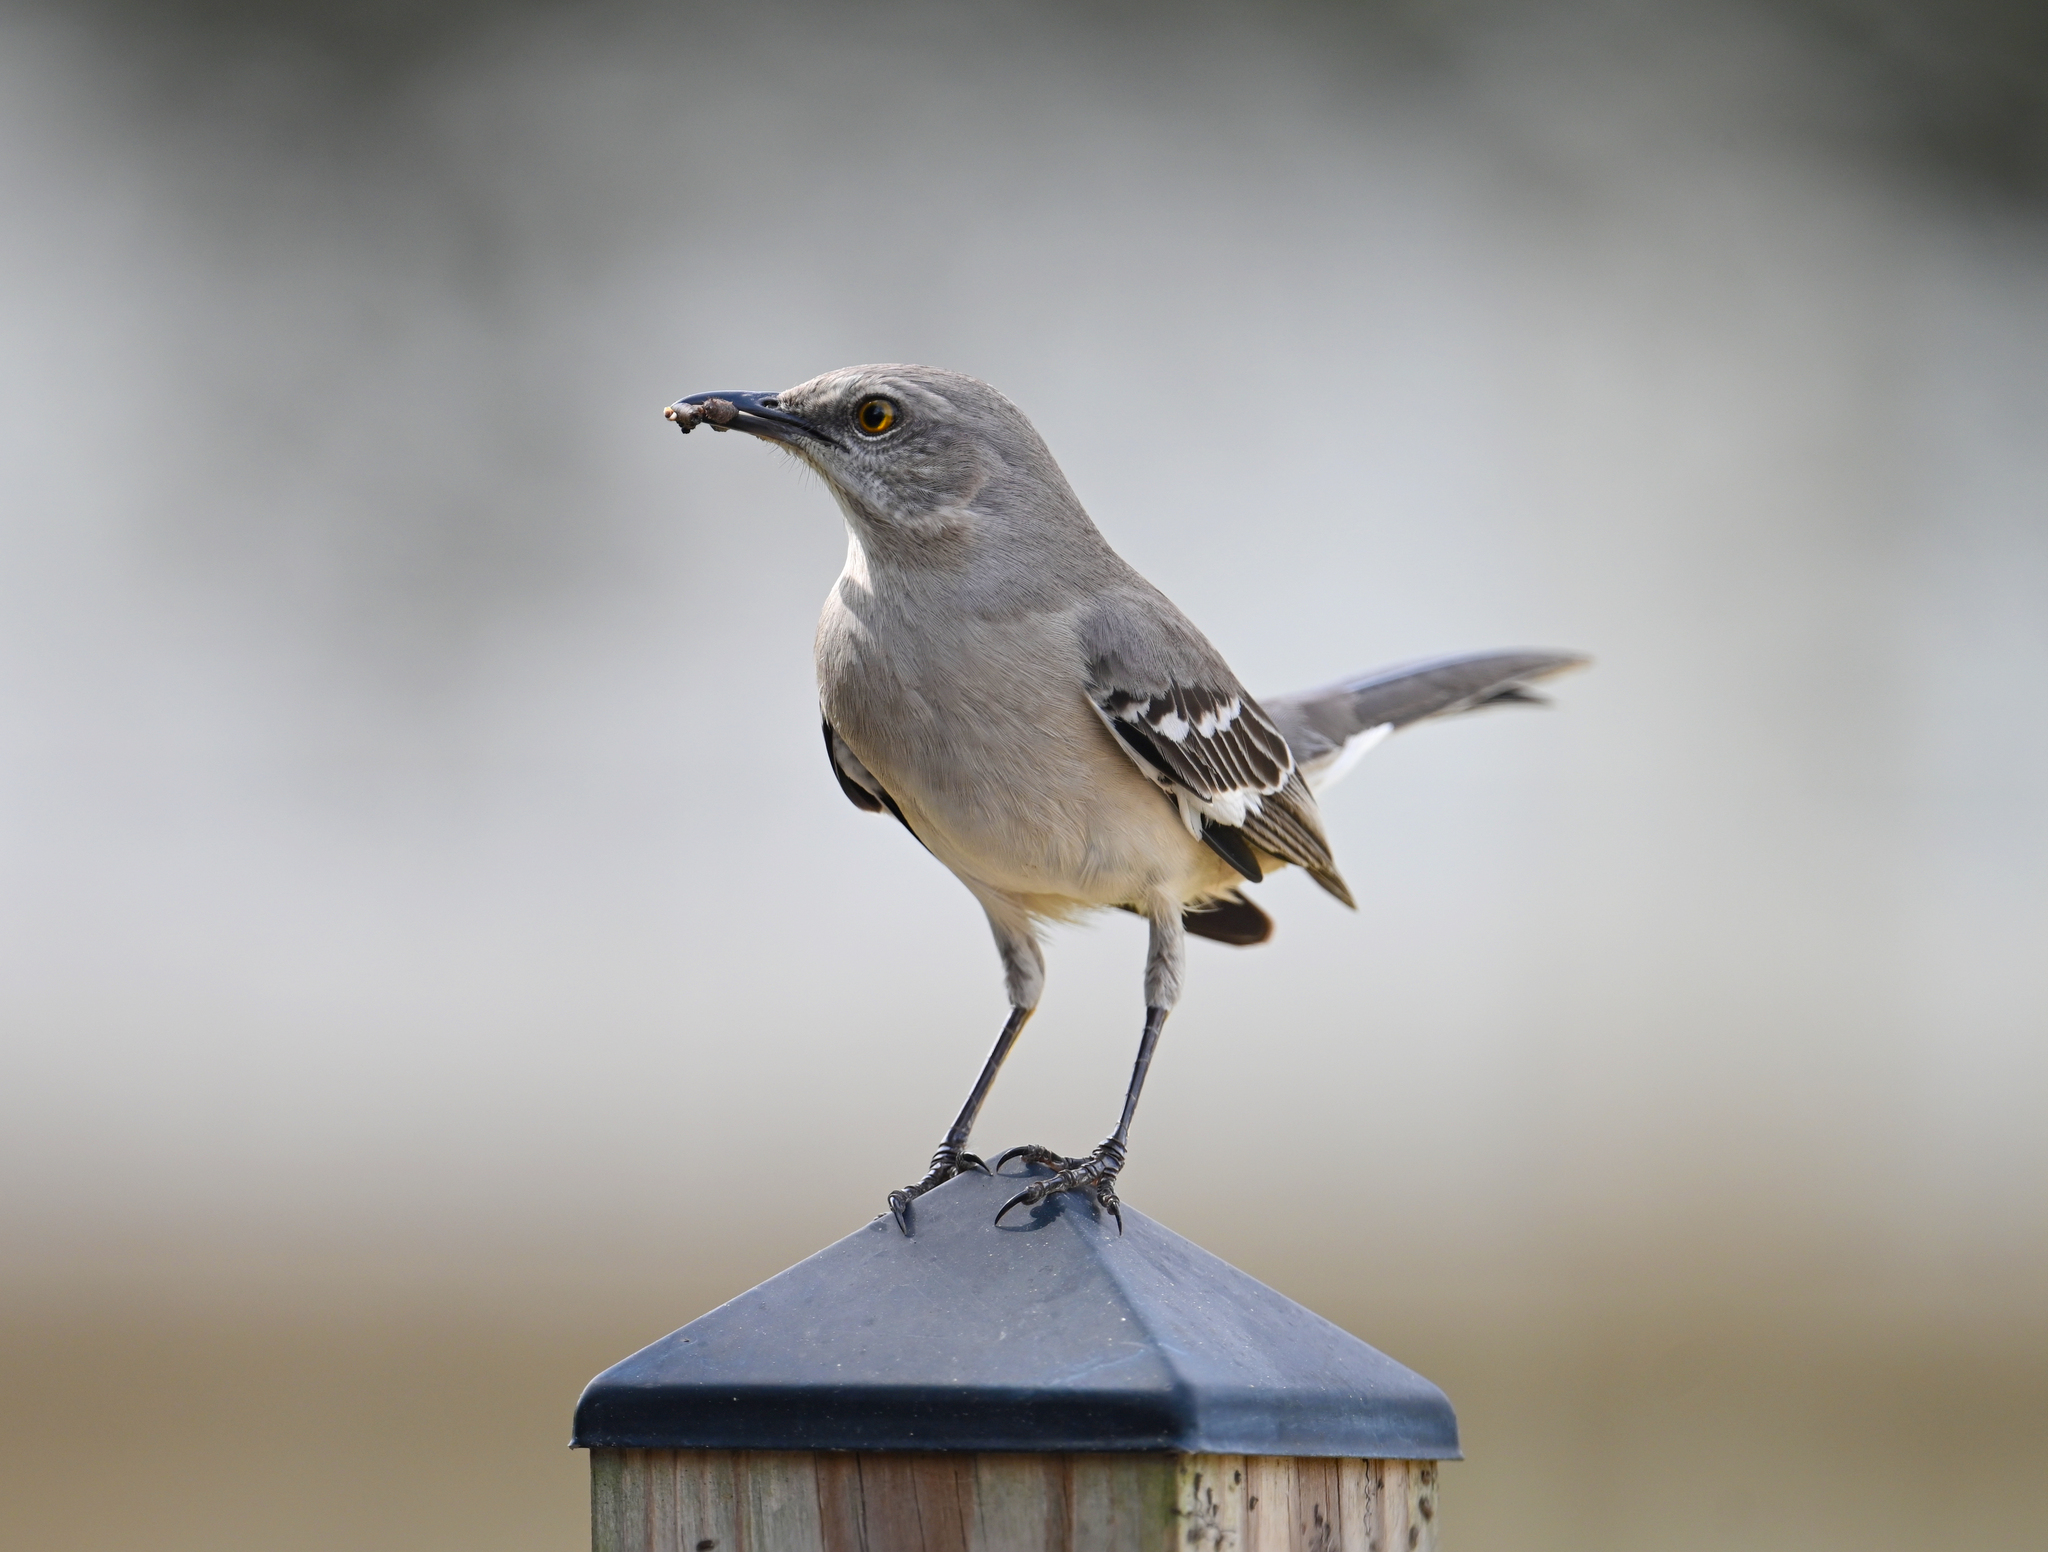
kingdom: Animalia
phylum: Chordata
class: Aves
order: Passeriformes
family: Mimidae
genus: Mimus
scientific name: Mimus polyglottos
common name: Northern mockingbird
